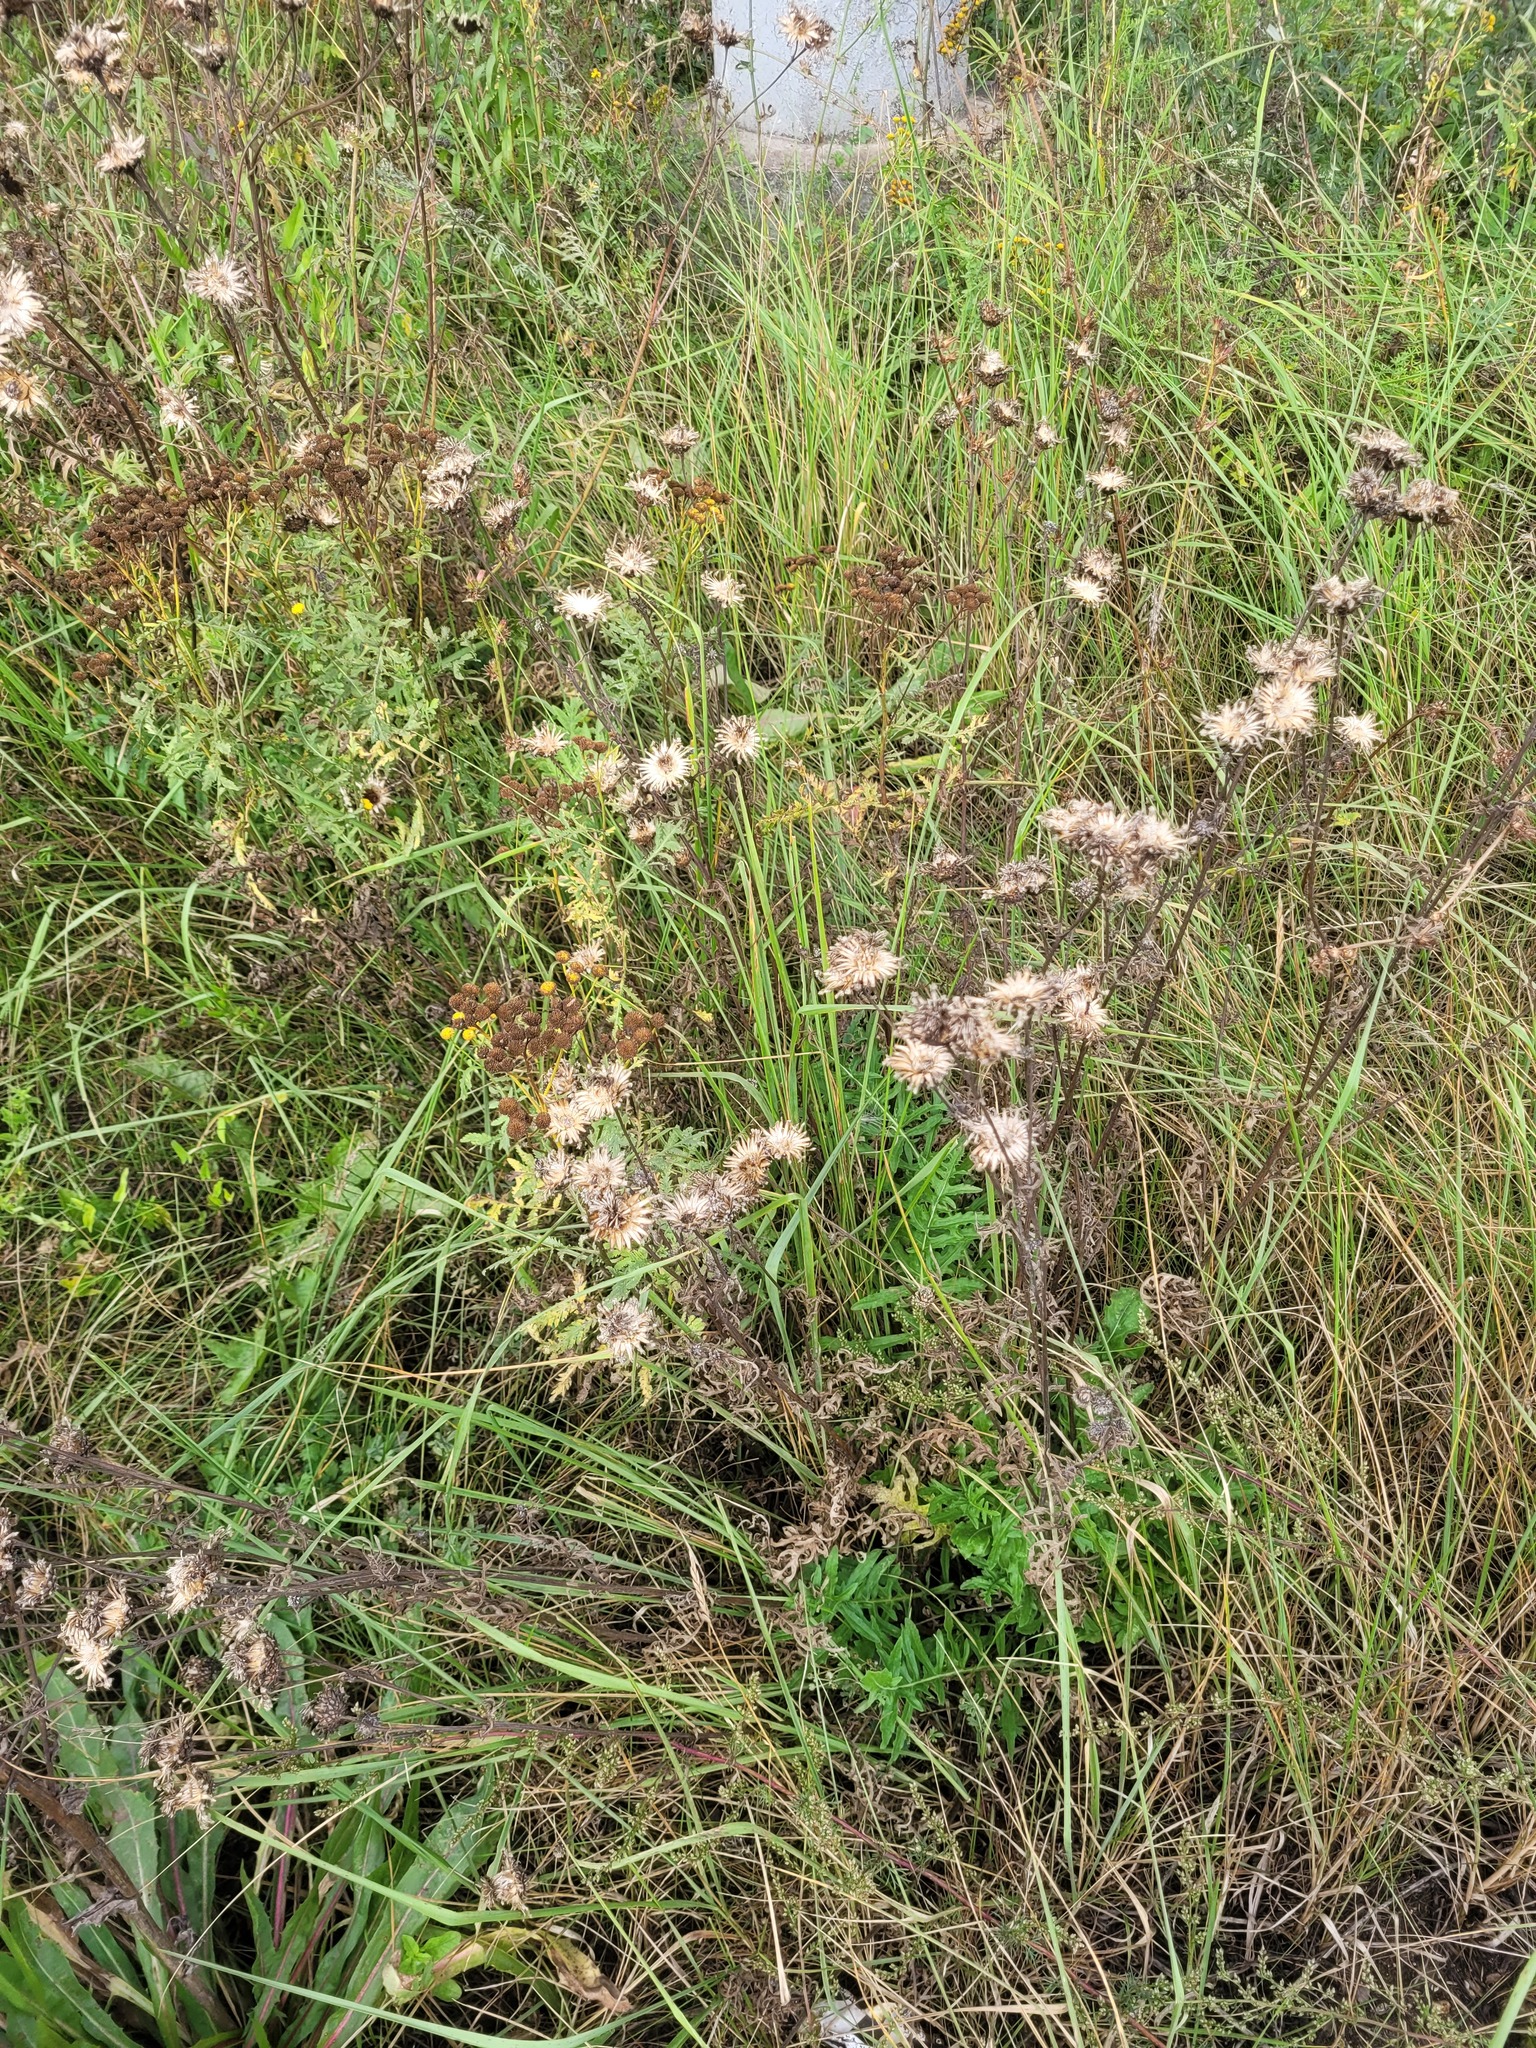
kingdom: Plantae
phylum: Tracheophyta
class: Magnoliopsida
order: Asterales
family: Asteraceae
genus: Centaurea
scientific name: Centaurea scabiosa
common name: Greater knapweed
